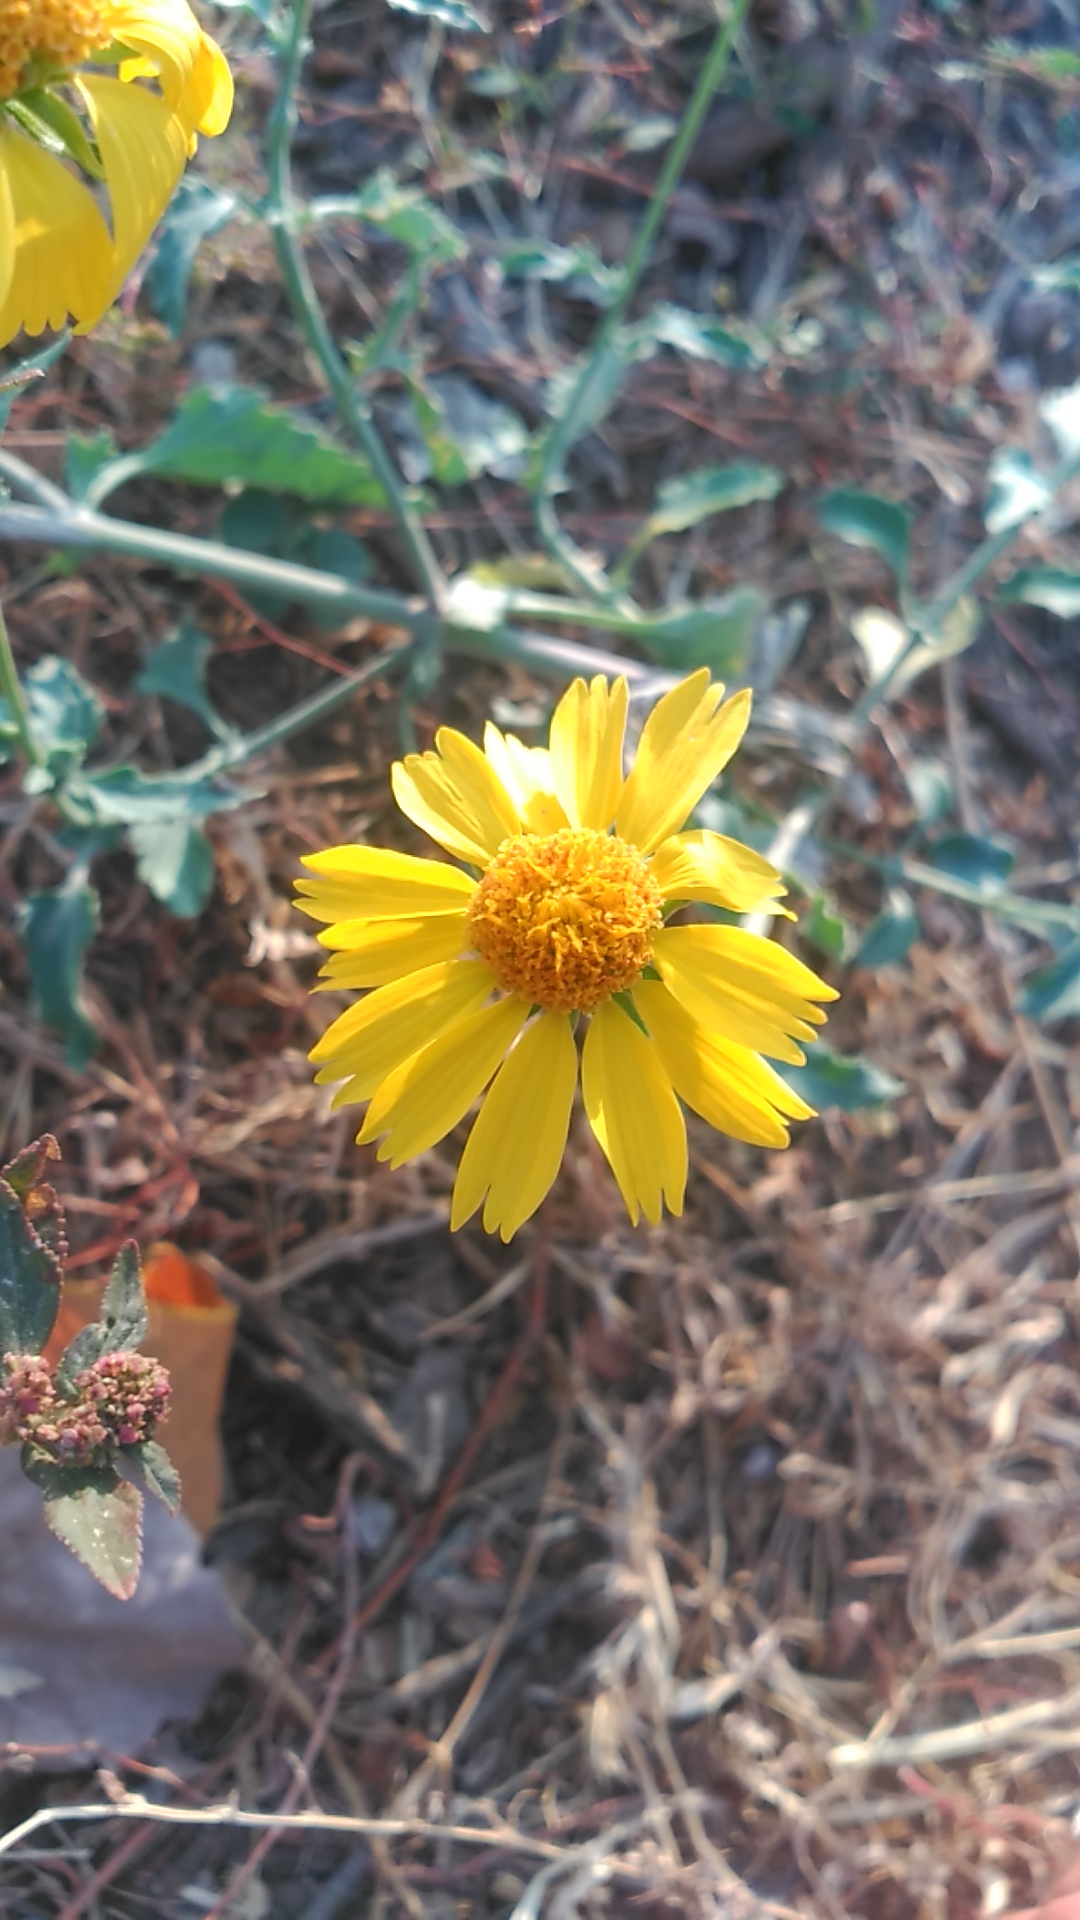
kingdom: Plantae
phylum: Tracheophyta
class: Magnoliopsida
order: Asterales
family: Asteraceae
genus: Verbesina
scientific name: Verbesina encelioides
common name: Golden crownbeard
